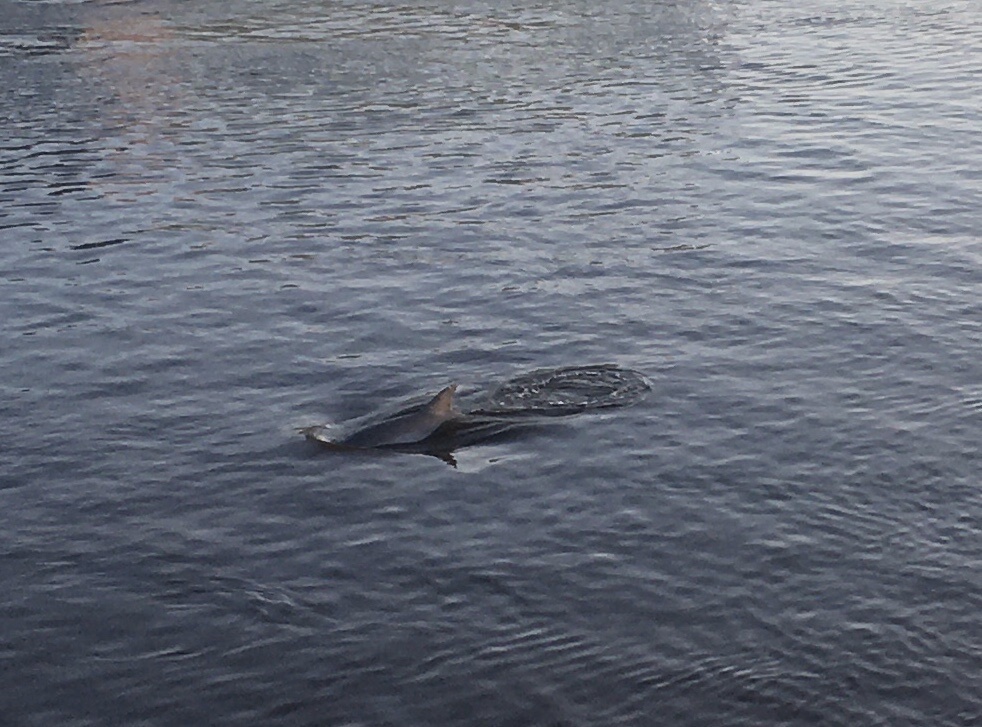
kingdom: Animalia
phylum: Chordata
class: Mammalia
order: Cetacea
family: Delphinidae
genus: Tursiops
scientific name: Tursiops truncatus
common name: Bottlenose dolphin
